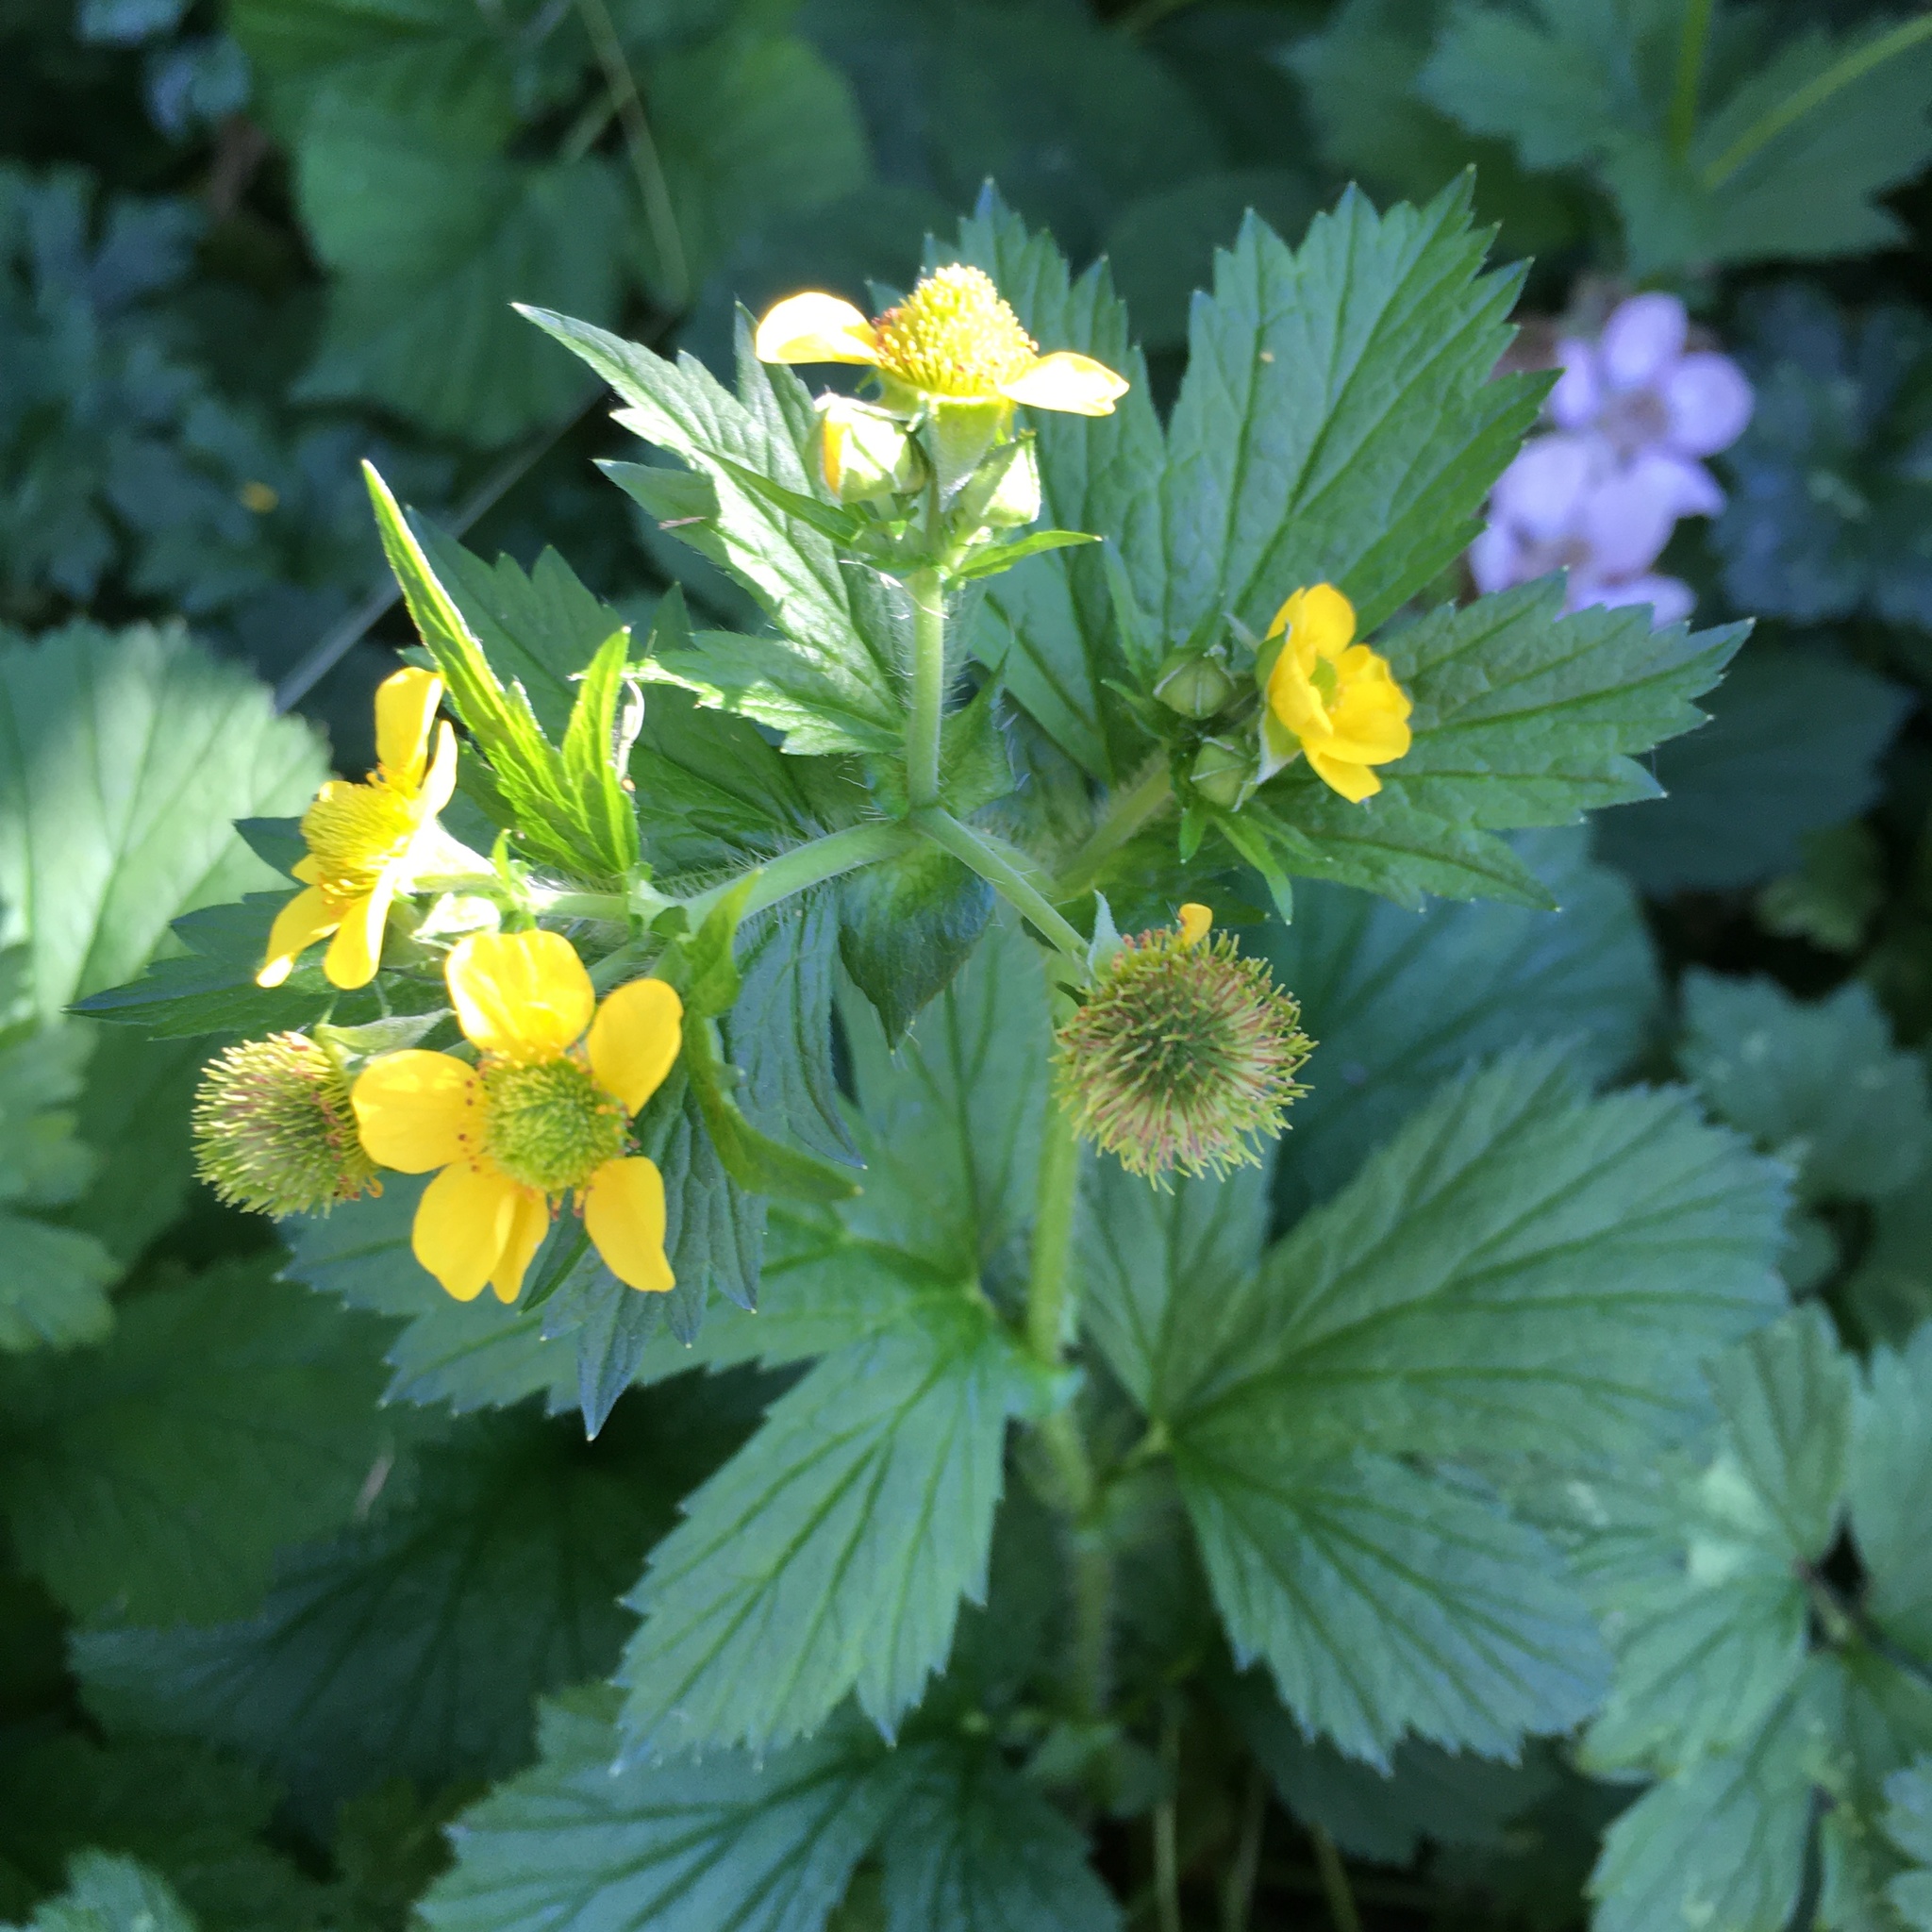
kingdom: Plantae
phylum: Tracheophyta
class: Magnoliopsida
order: Rosales
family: Rosaceae
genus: Geum
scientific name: Geum macrophyllum
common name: Large-leaved avens
